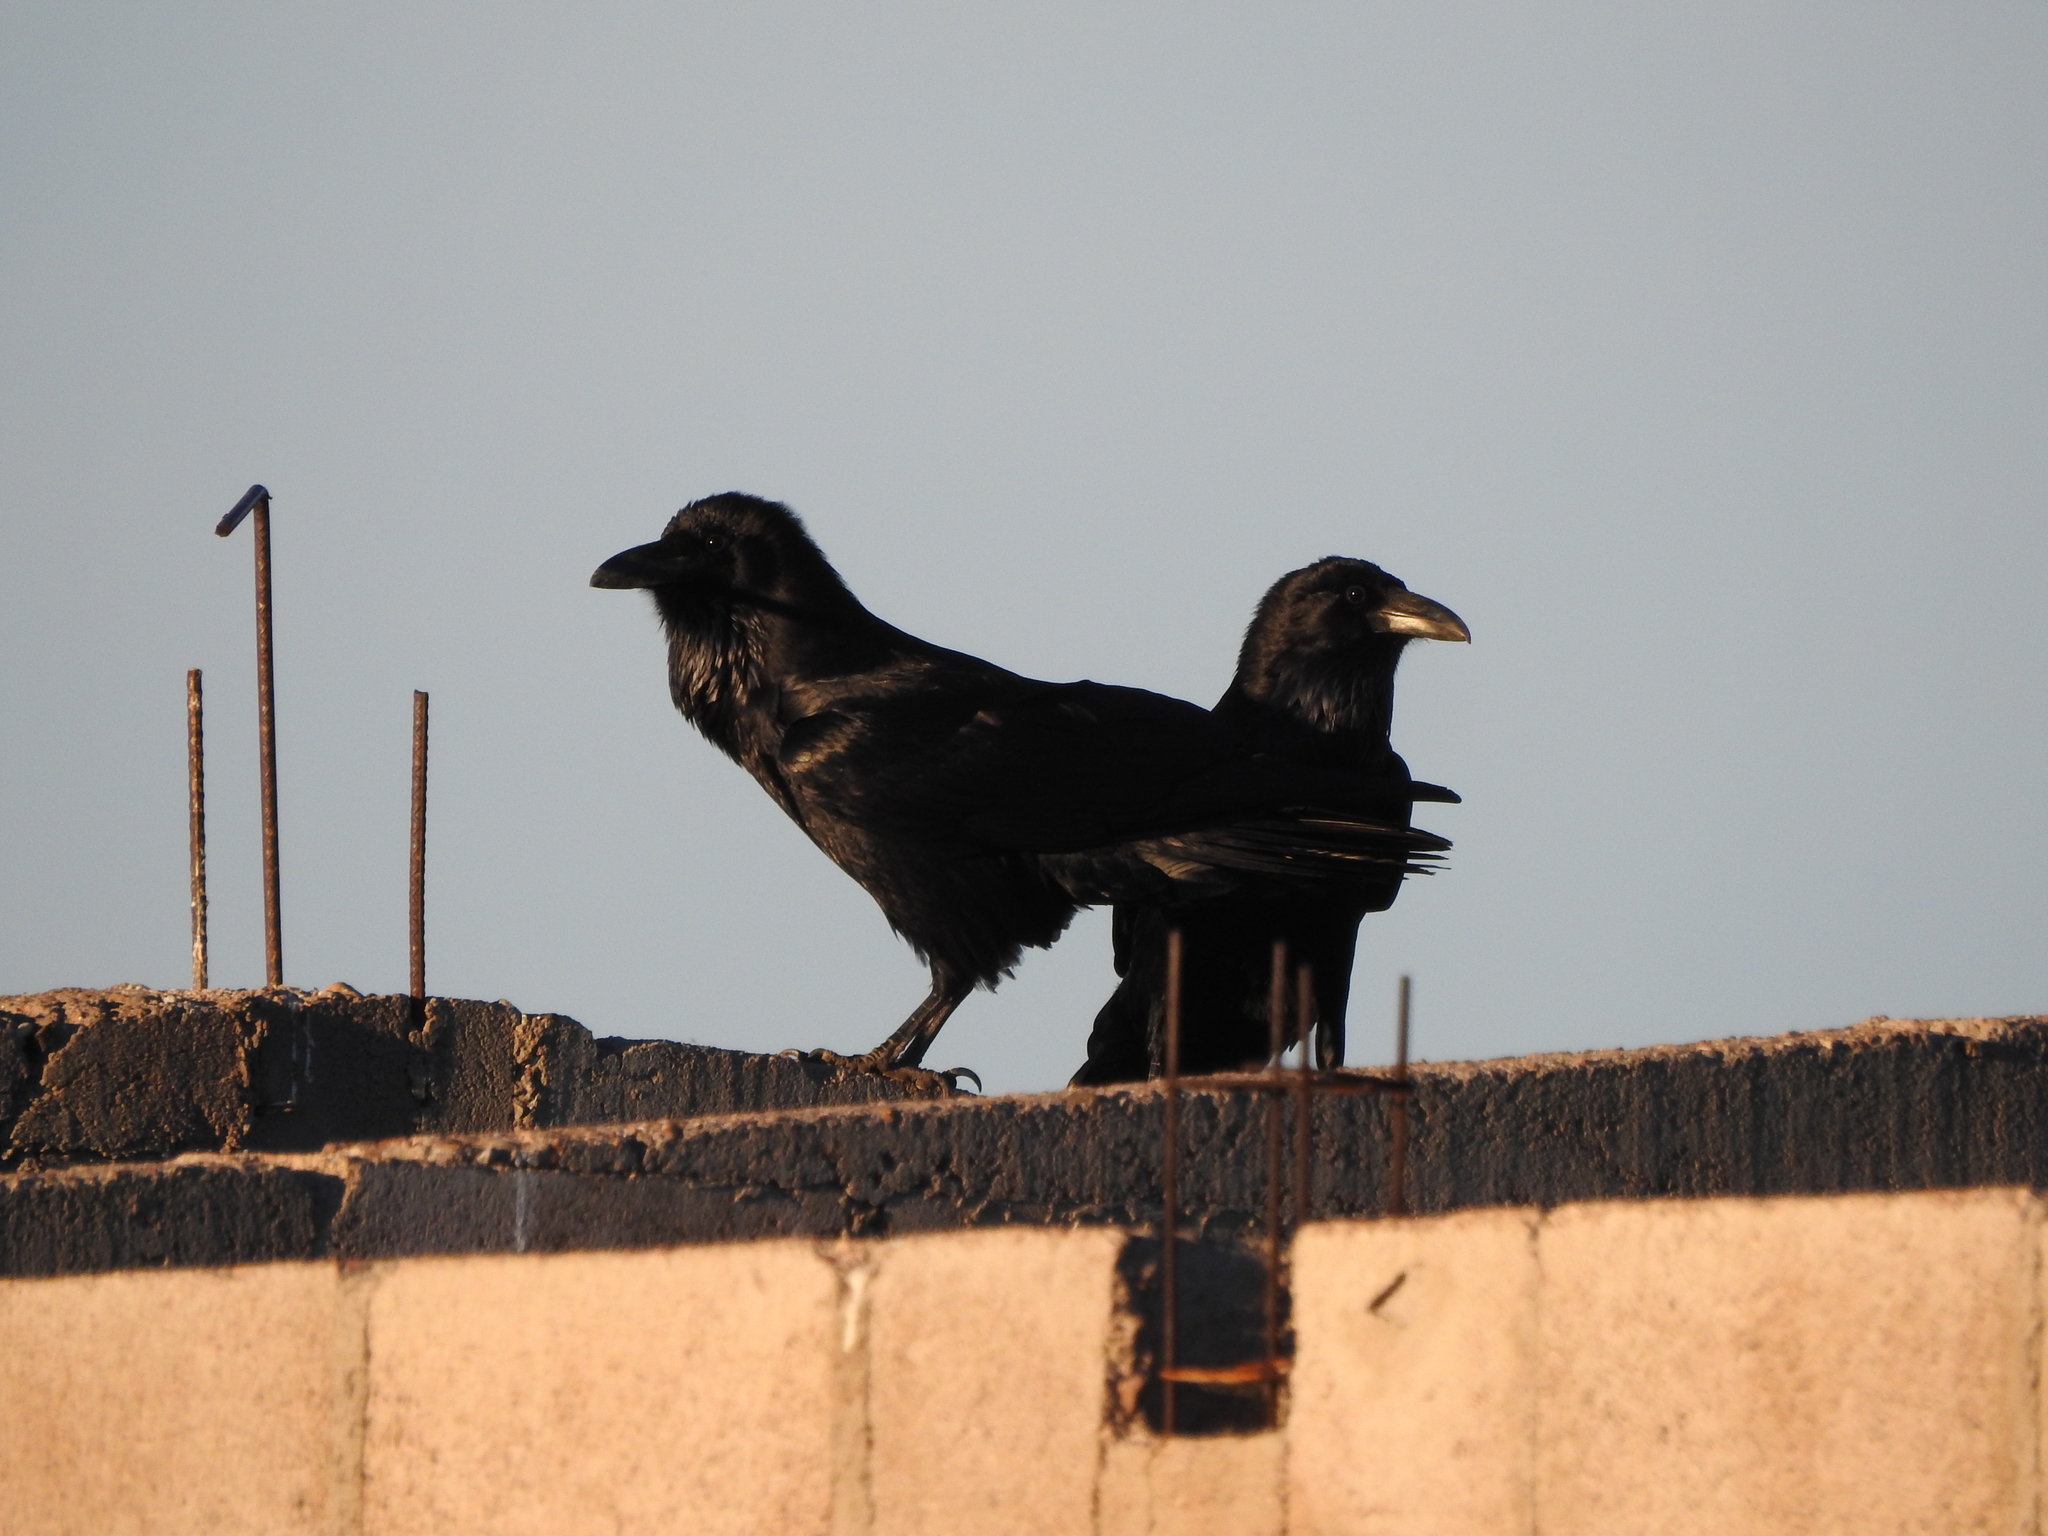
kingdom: Animalia
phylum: Chordata
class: Aves
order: Passeriformes
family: Corvidae
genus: Corvus
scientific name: Corvus corax
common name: Common raven
